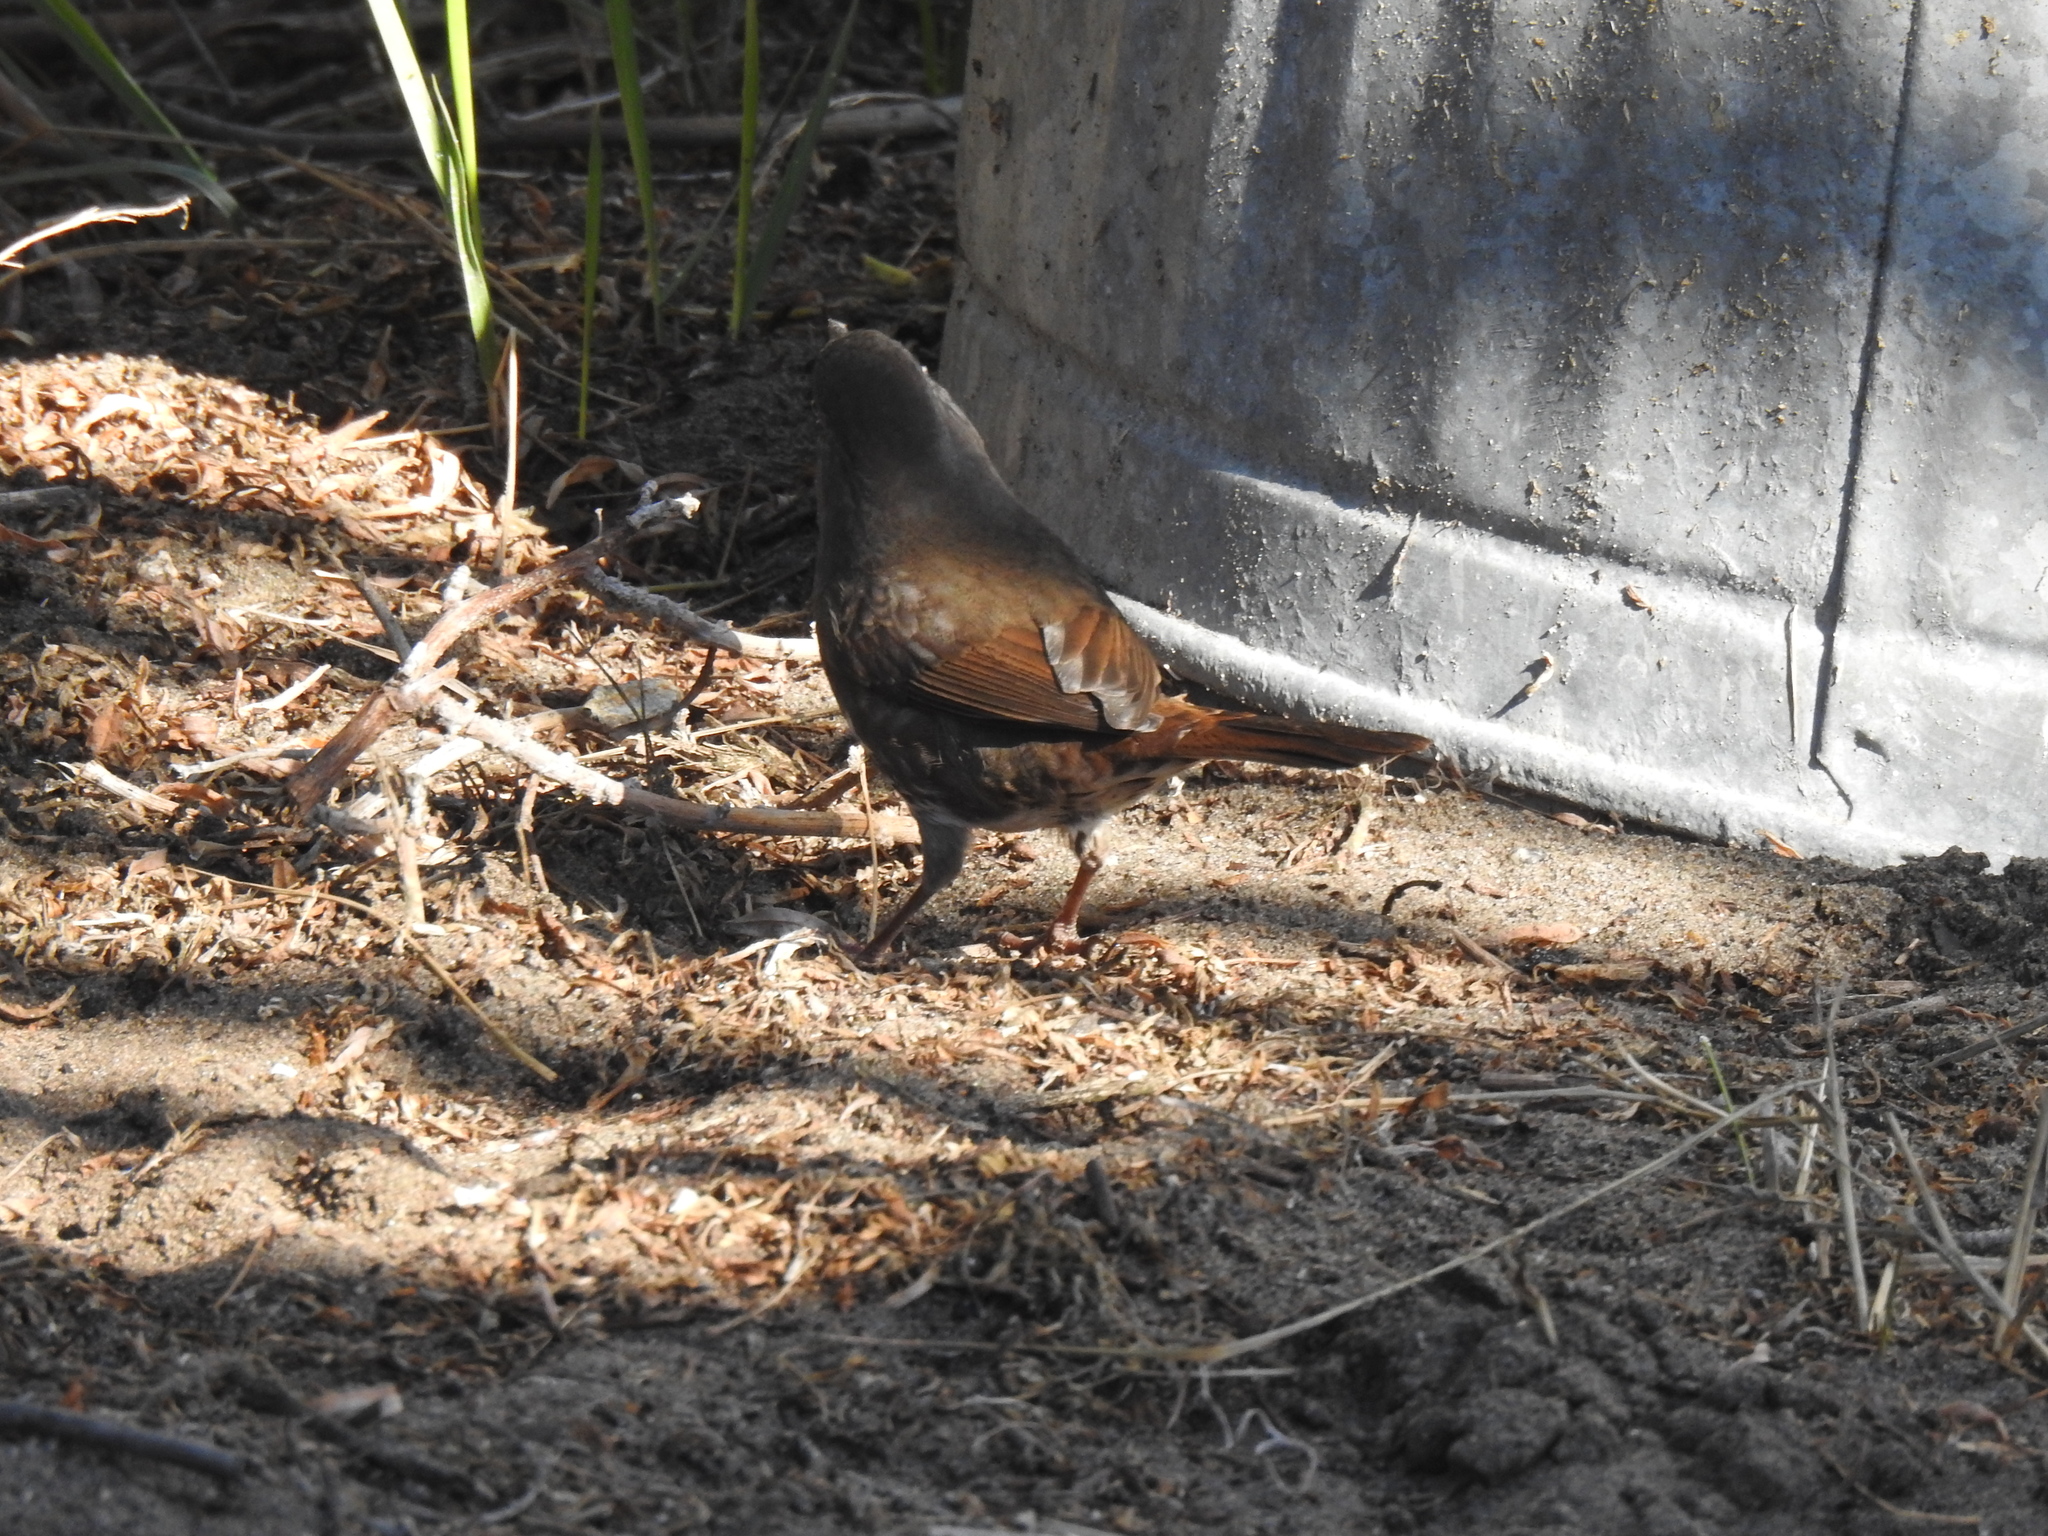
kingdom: Animalia
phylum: Chordata
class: Aves
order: Passeriformes
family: Passerellidae
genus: Passerella
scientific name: Passerella iliaca
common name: Fox sparrow
